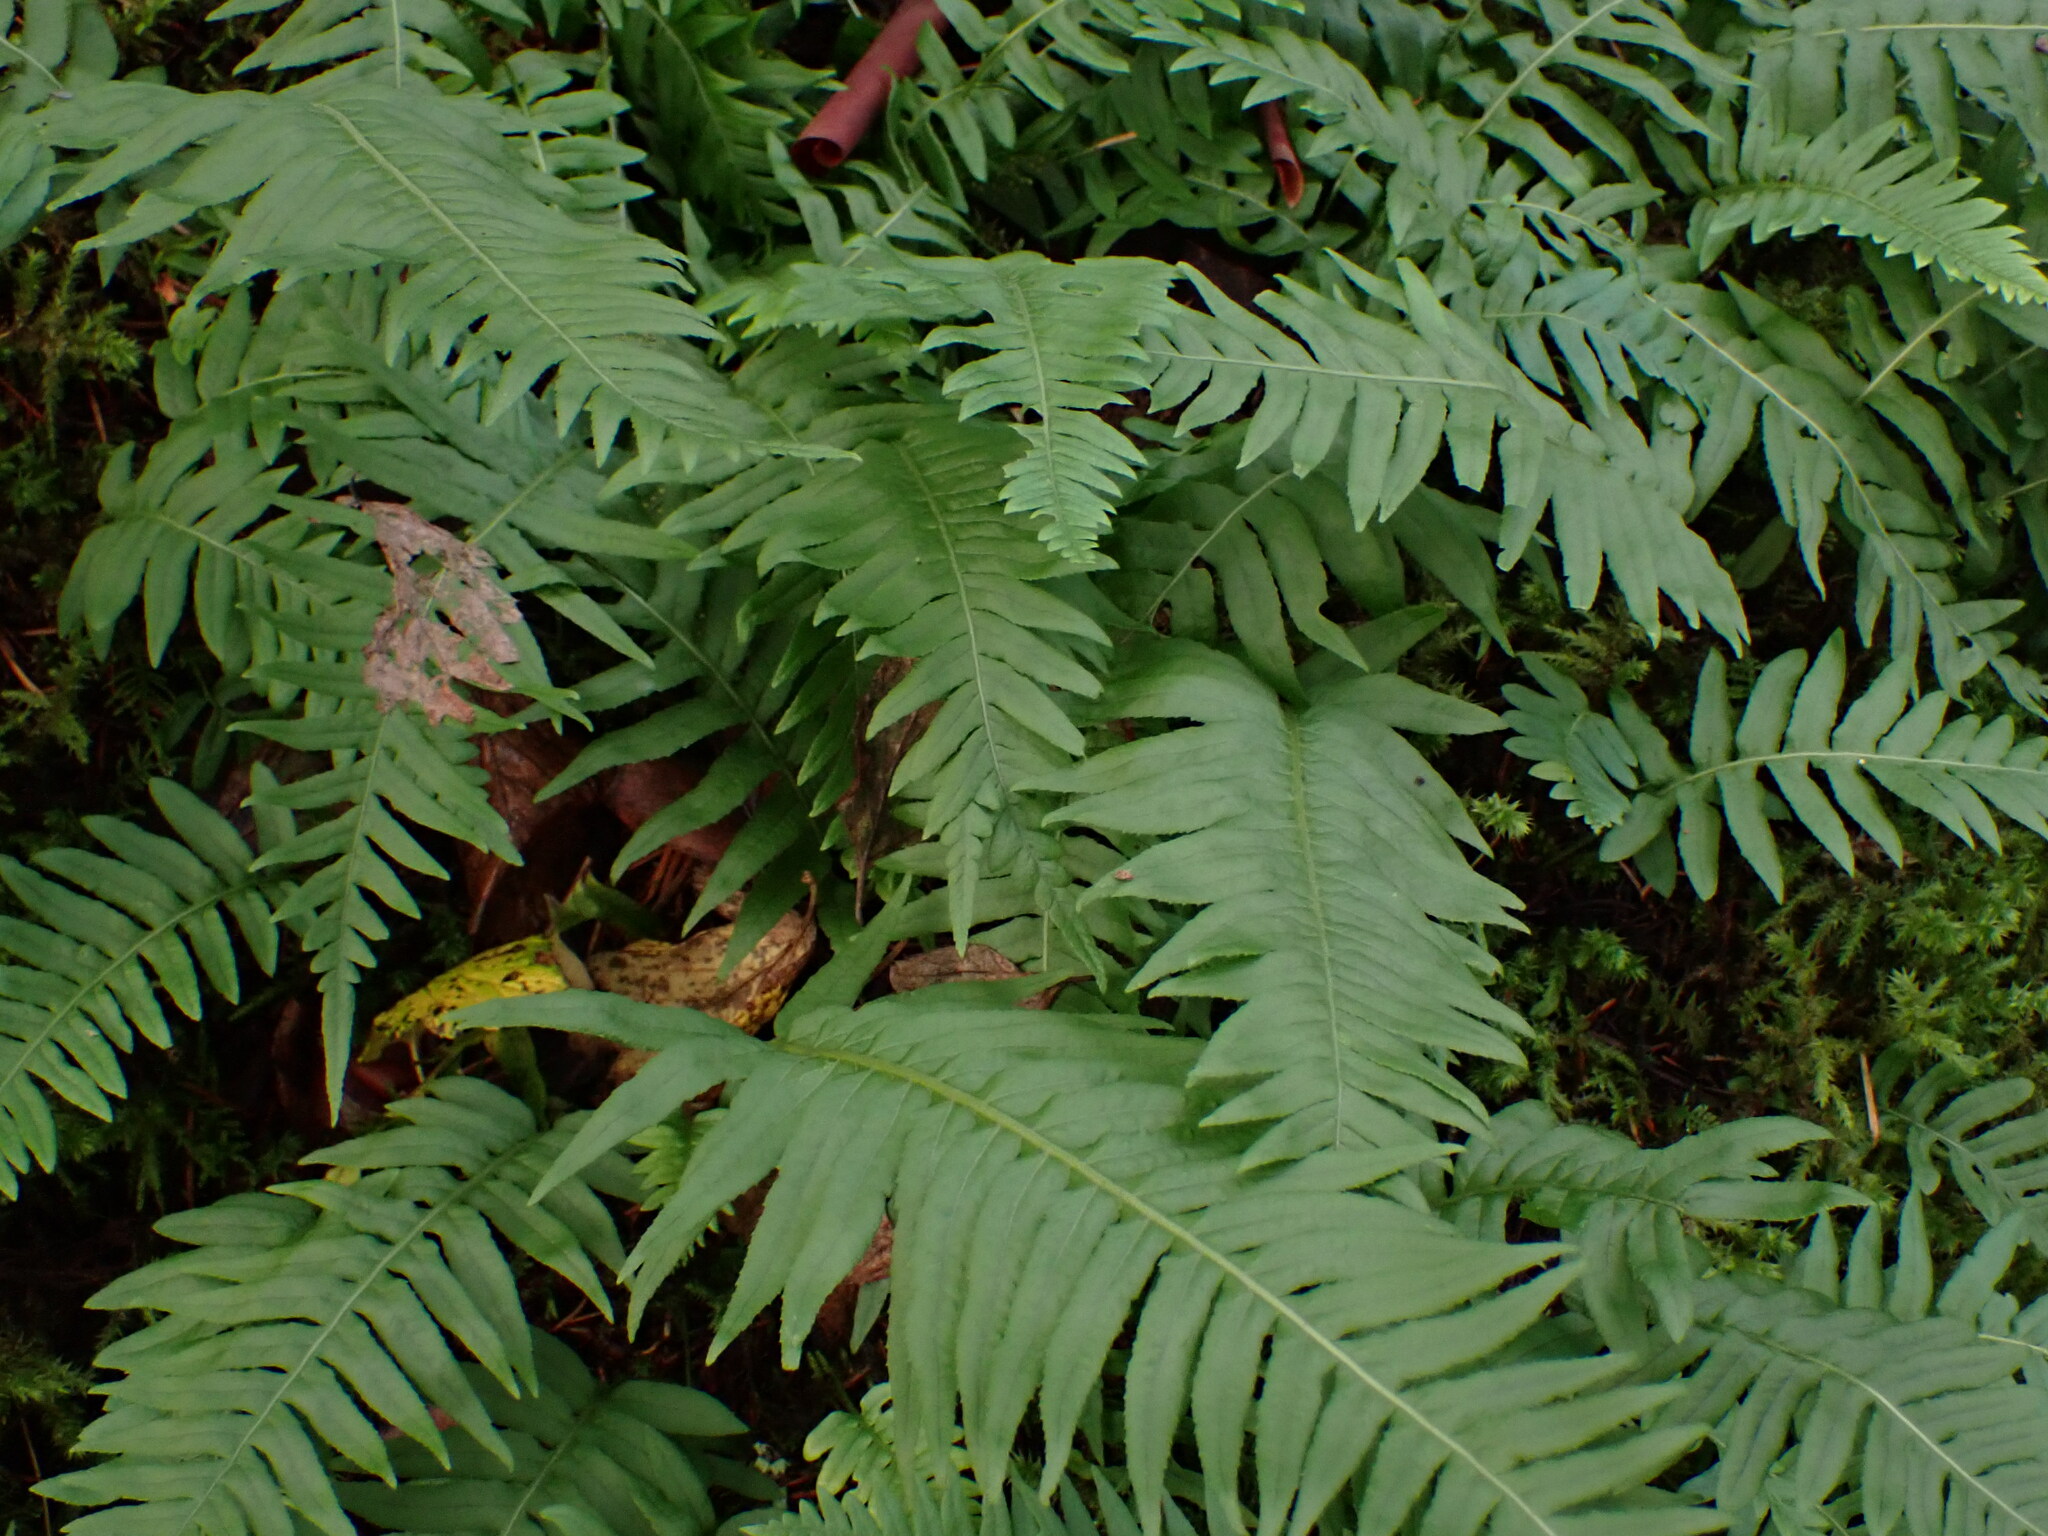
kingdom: Plantae
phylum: Tracheophyta
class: Polypodiopsida
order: Polypodiales
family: Polypodiaceae
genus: Polypodium
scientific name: Polypodium glycyrrhiza
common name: Licorice fern
